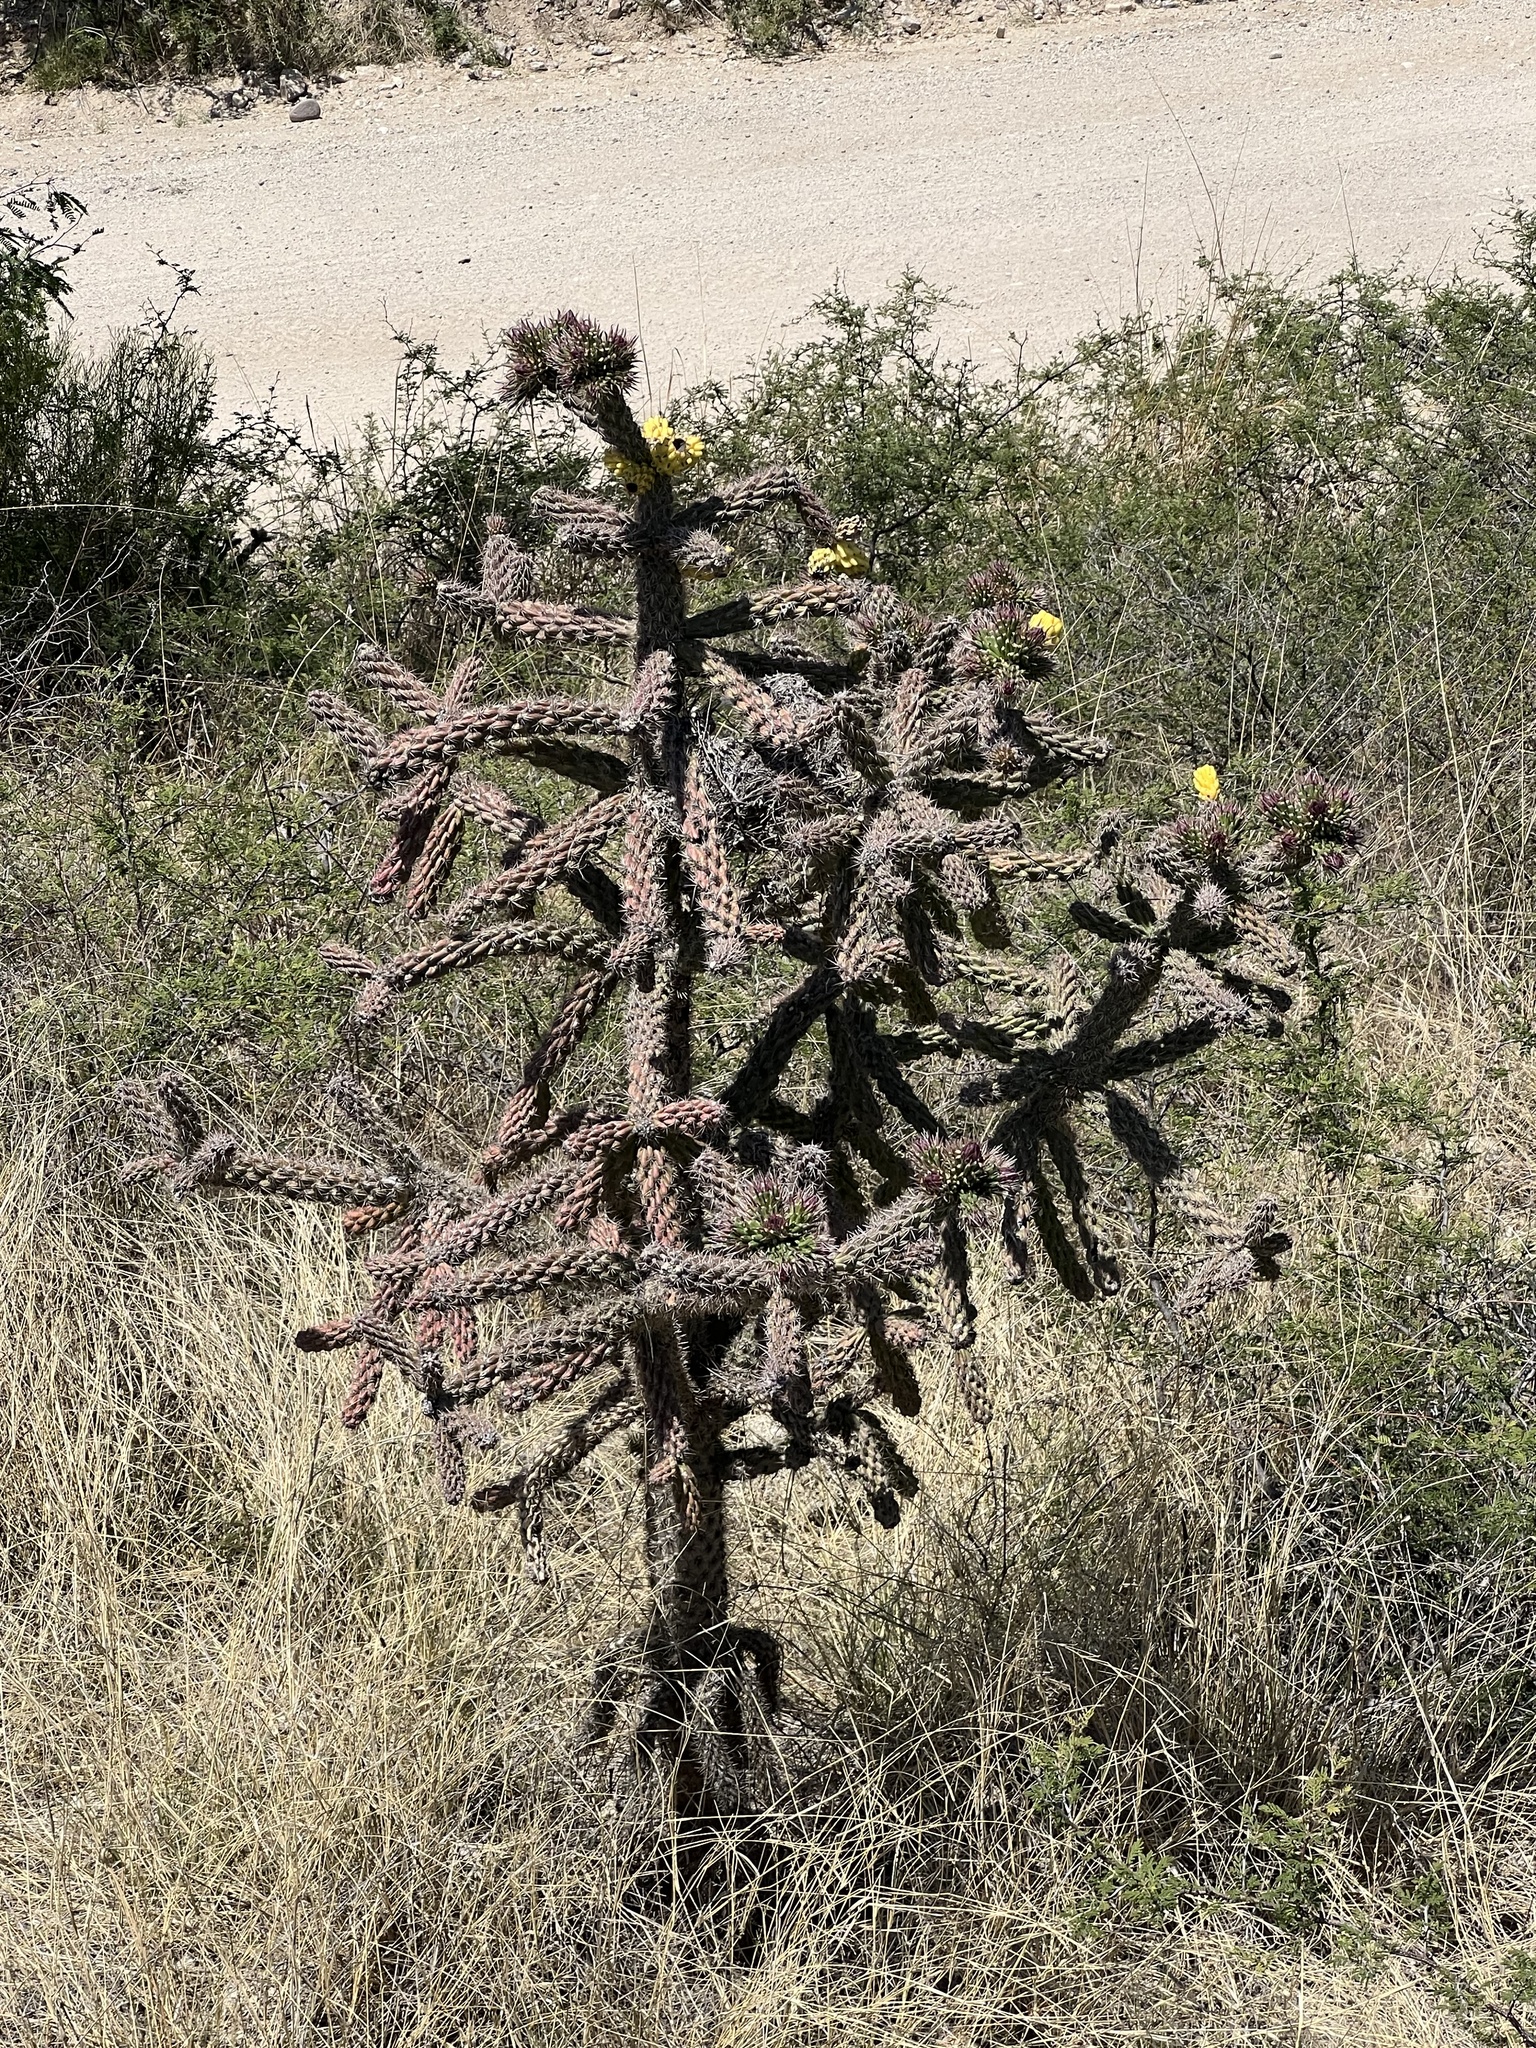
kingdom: Plantae
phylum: Tracheophyta
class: Magnoliopsida
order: Caryophyllales
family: Cactaceae
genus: Cylindropuntia
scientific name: Cylindropuntia imbricata
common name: Candelabrum cactus
